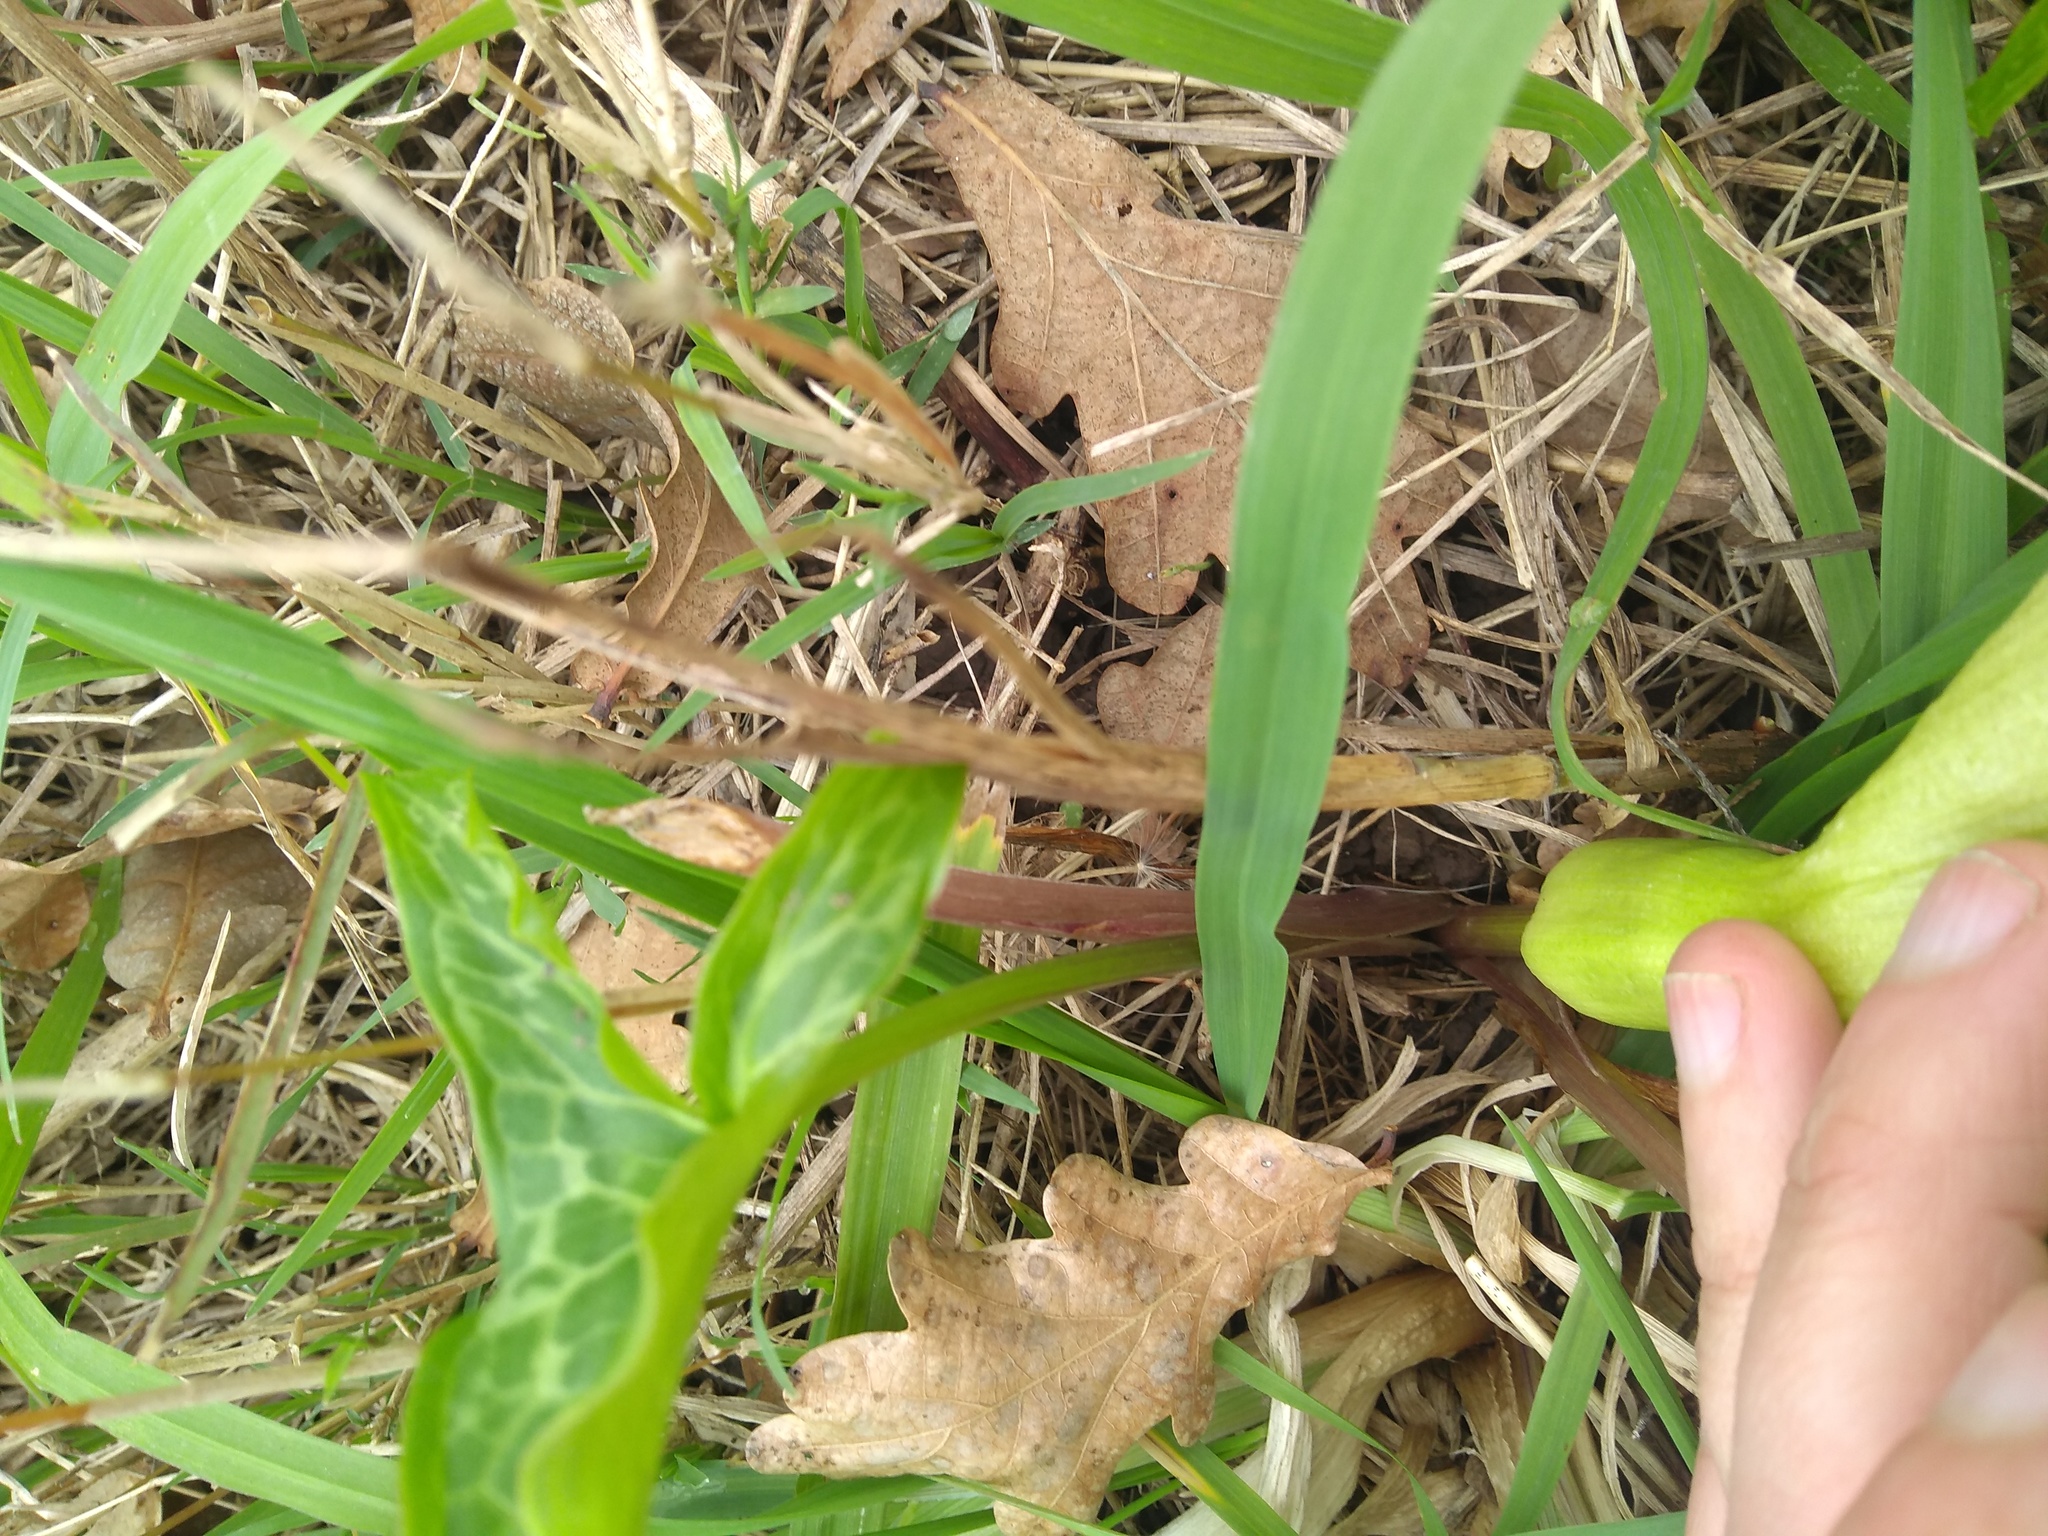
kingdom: Plantae
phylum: Tracheophyta
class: Liliopsida
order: Alismatales
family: Araceae
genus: Arum
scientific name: Arum italicum
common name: Italian lords-and-ladies
